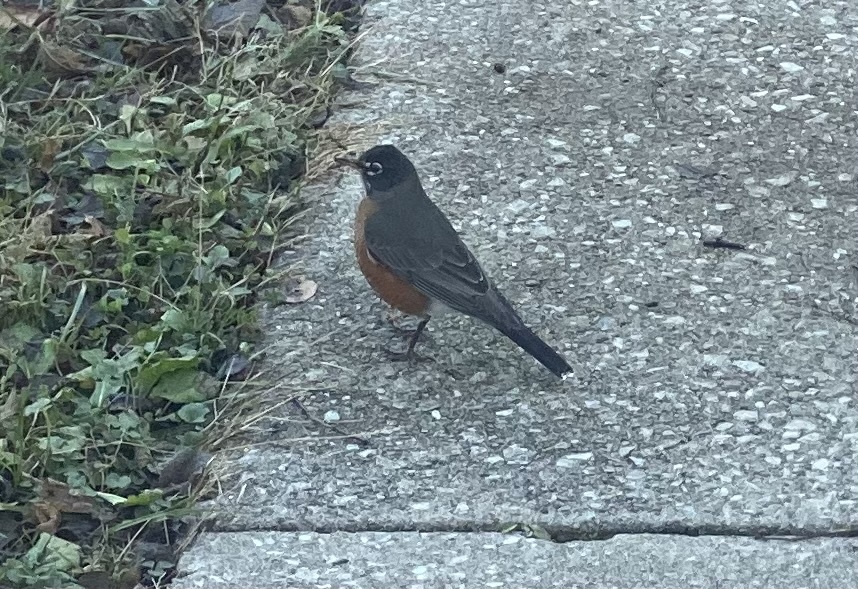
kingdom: Animalia
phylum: Chordata
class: Aves
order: Passeriformes
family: Turdidae
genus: Turdus
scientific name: Turdus migratorius
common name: American robin
